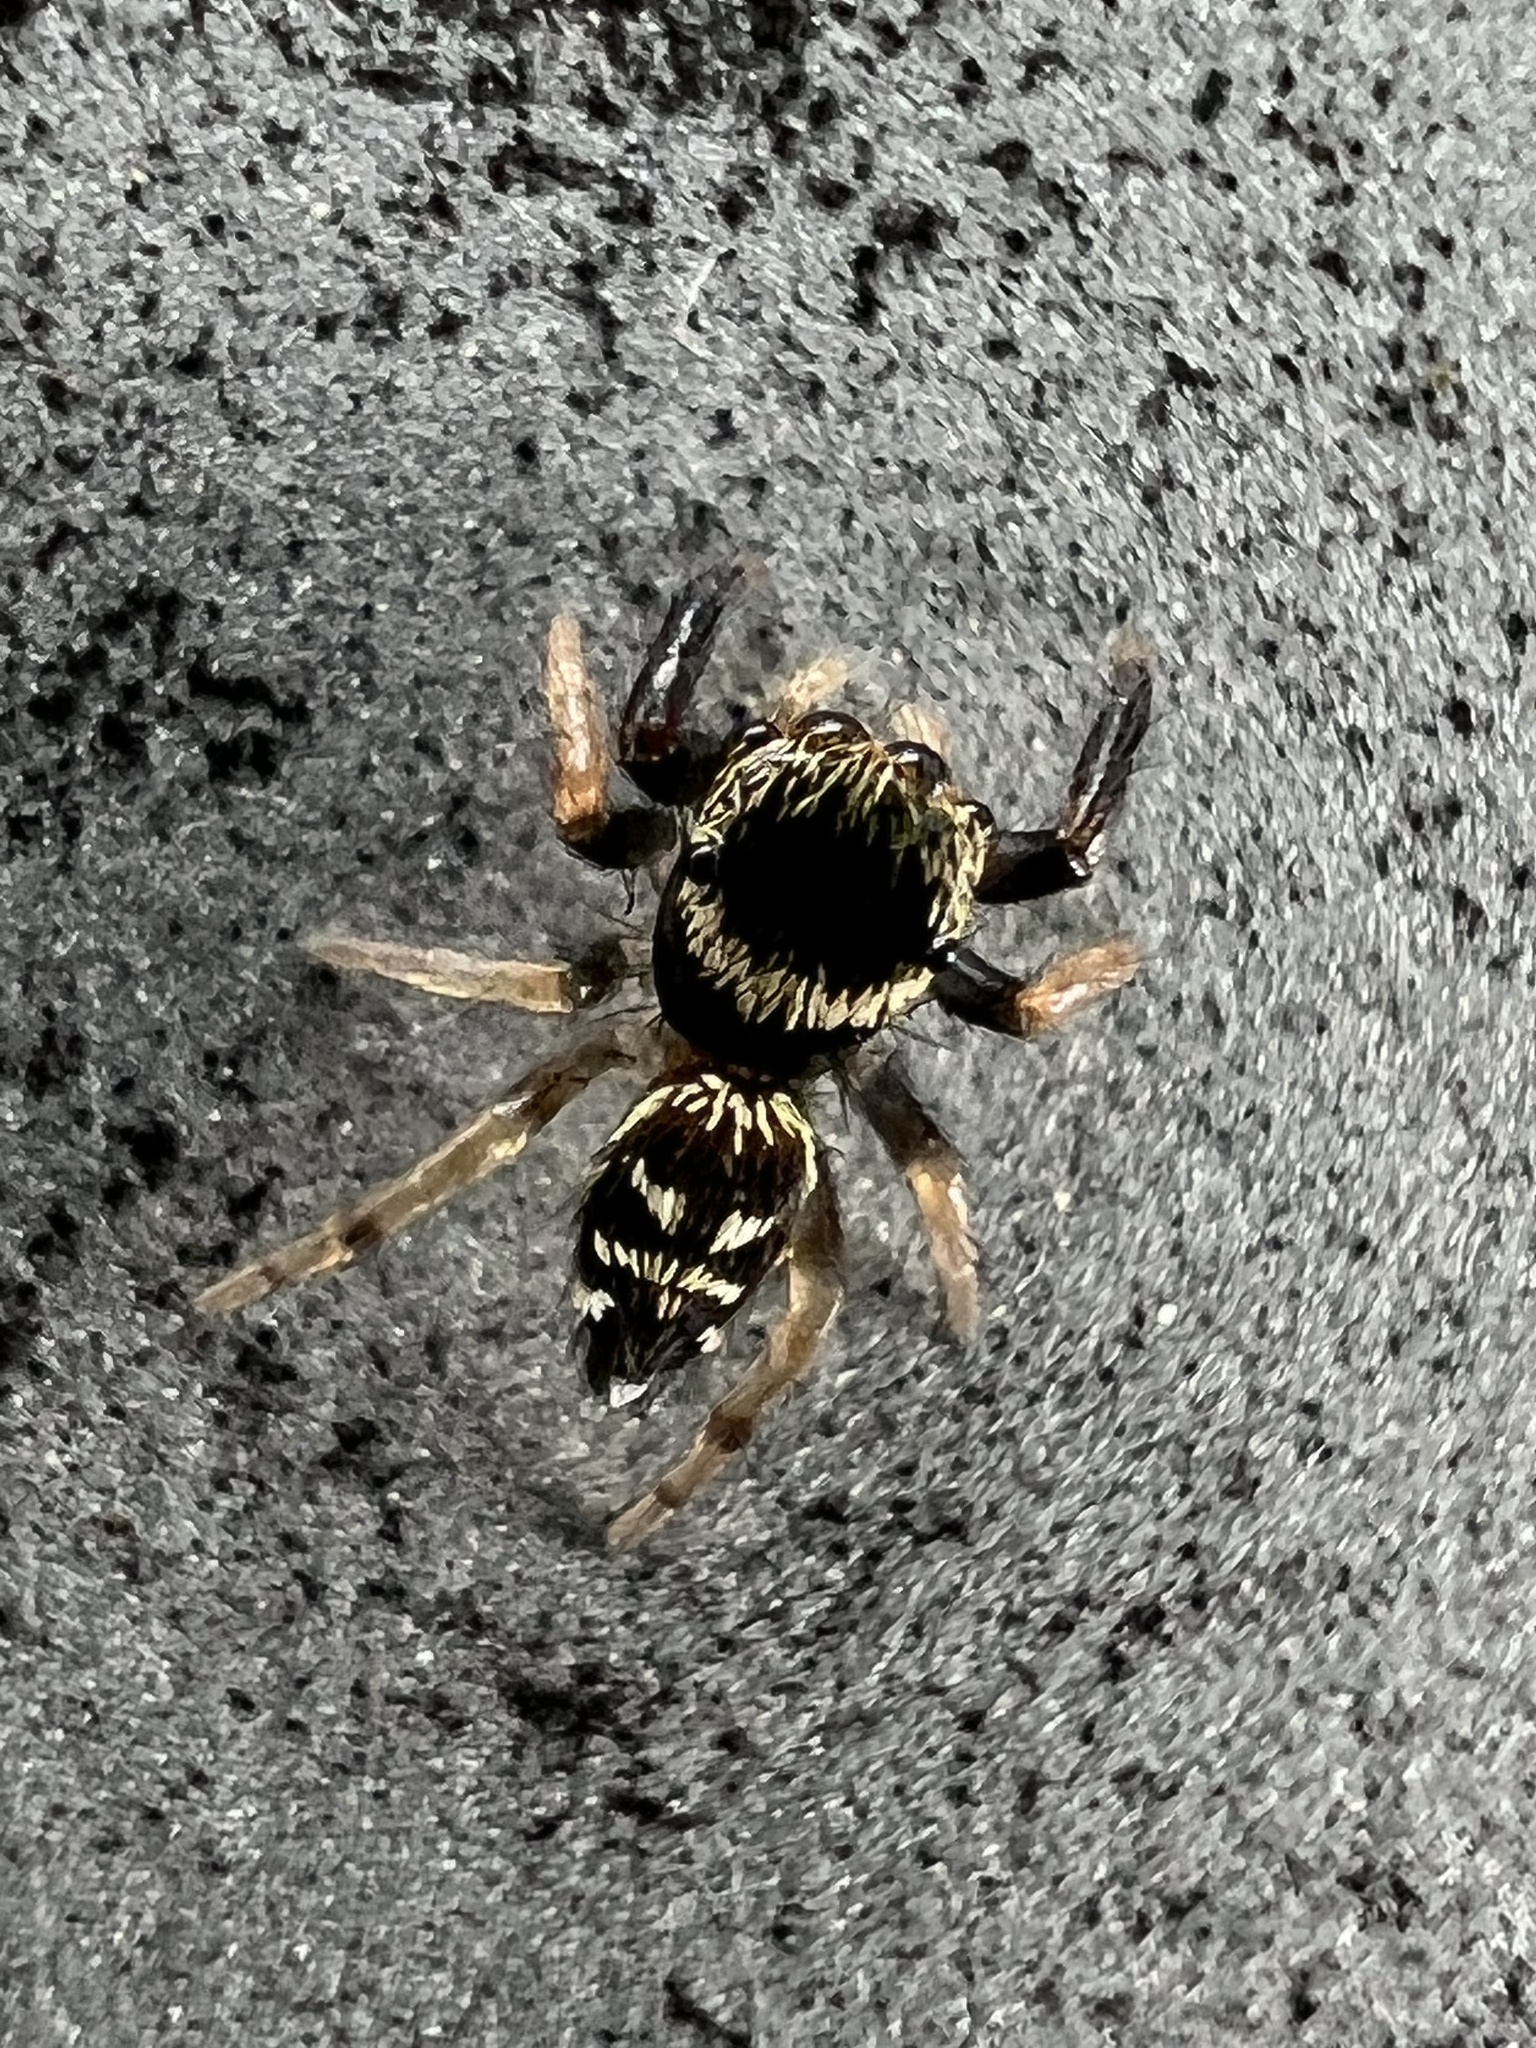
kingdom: Animalia
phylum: Arthropoda
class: Arachnida
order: Araneae
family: Salticidae
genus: Paraphidippus
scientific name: Paraphidippus aurantius
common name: Jumping spiders
